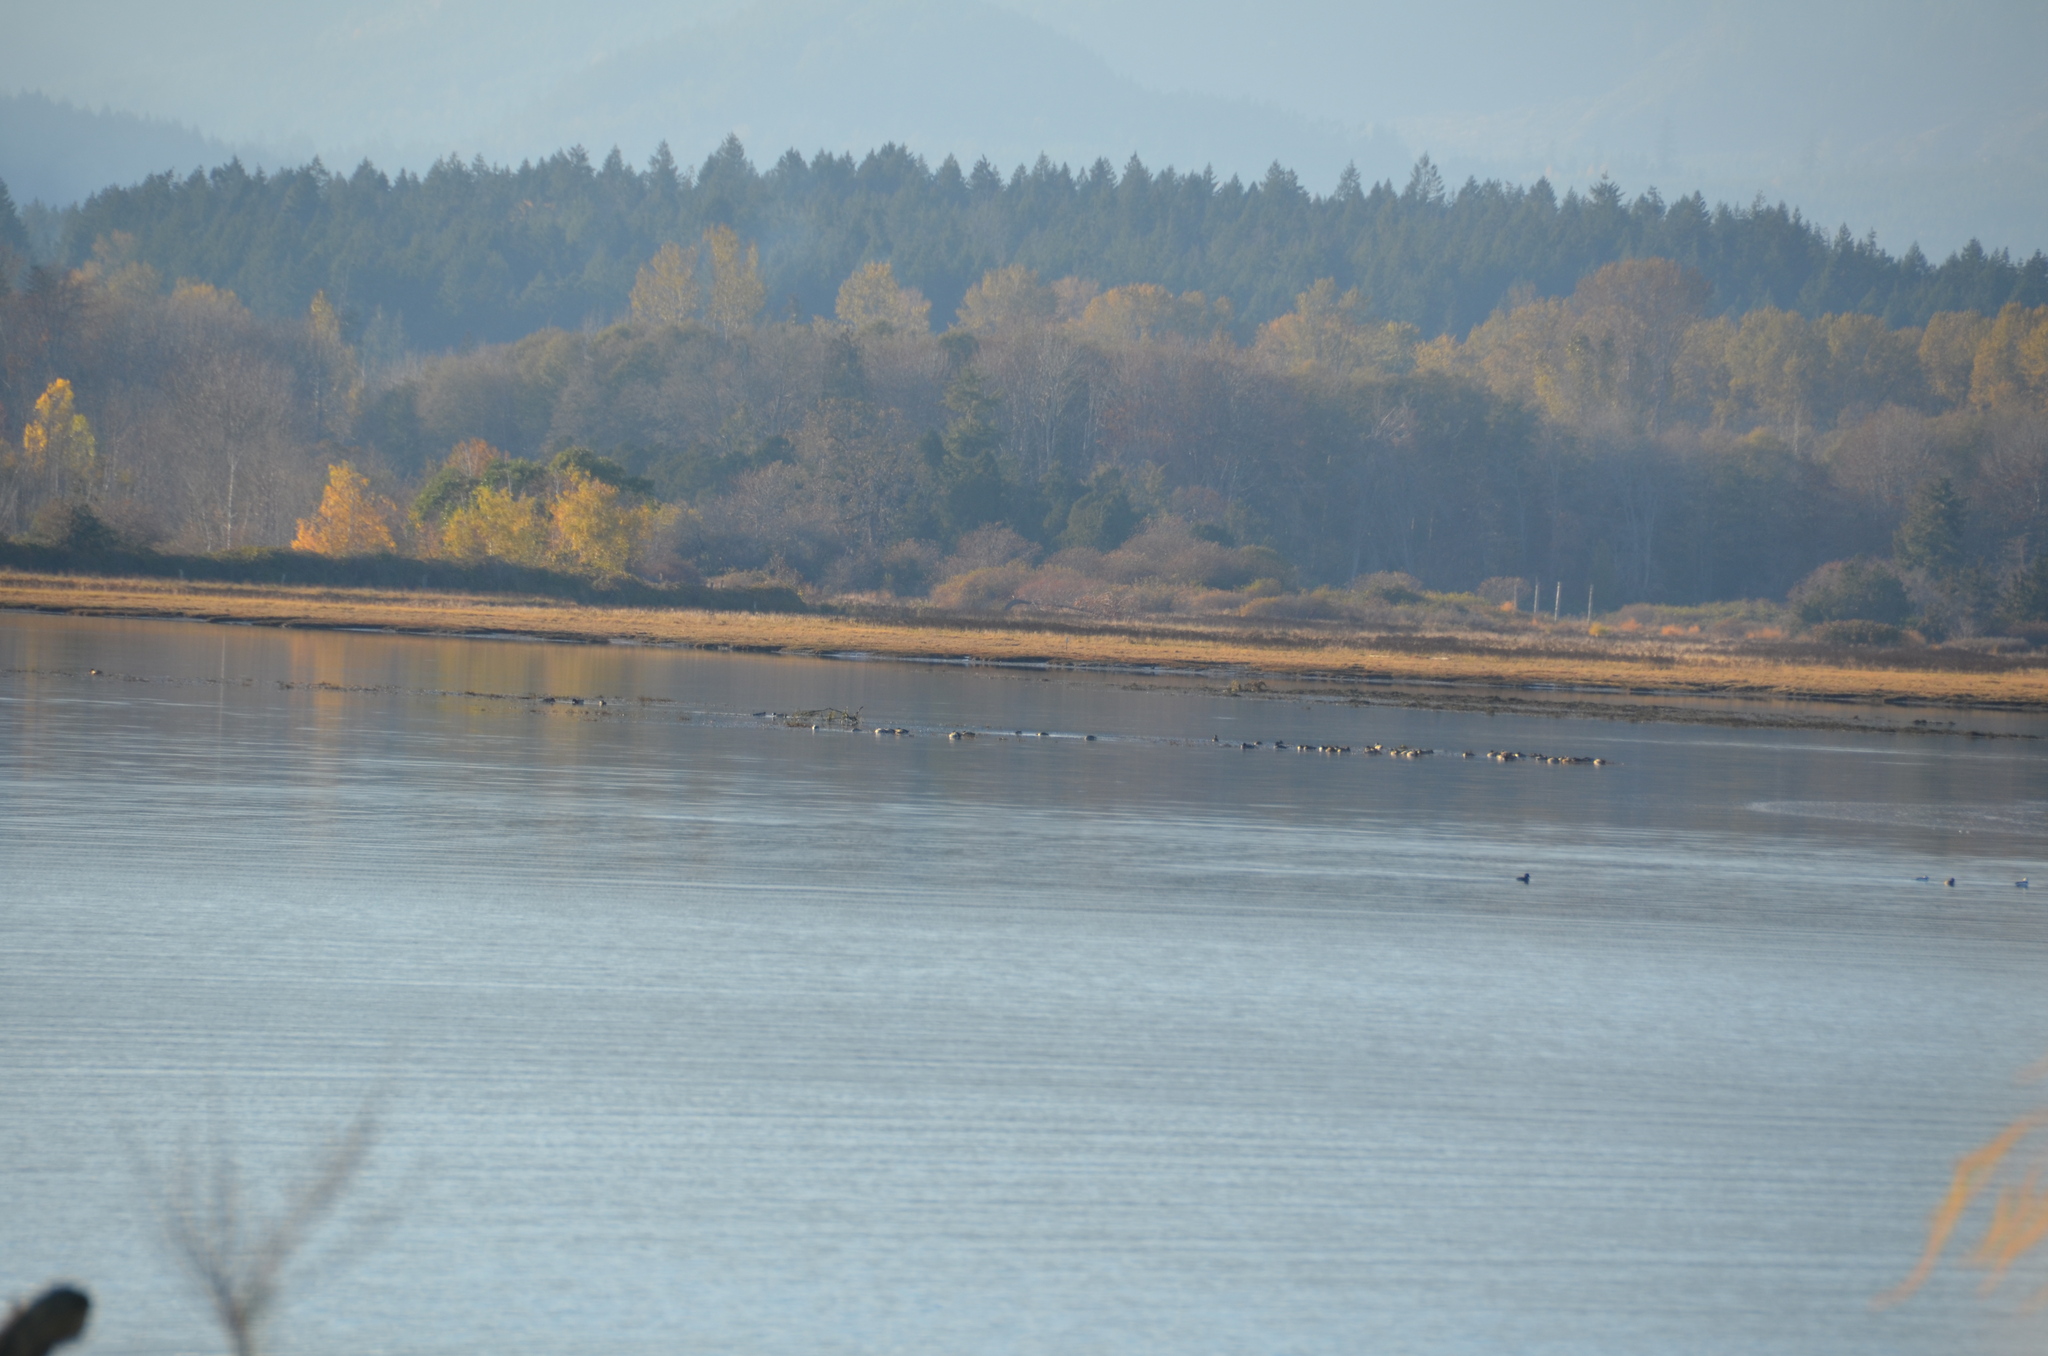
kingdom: Animalia
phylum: Chordata
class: Aves
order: Anseriformes
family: Anatidae
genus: Branta
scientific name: Branta canadensis
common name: Canada goose
